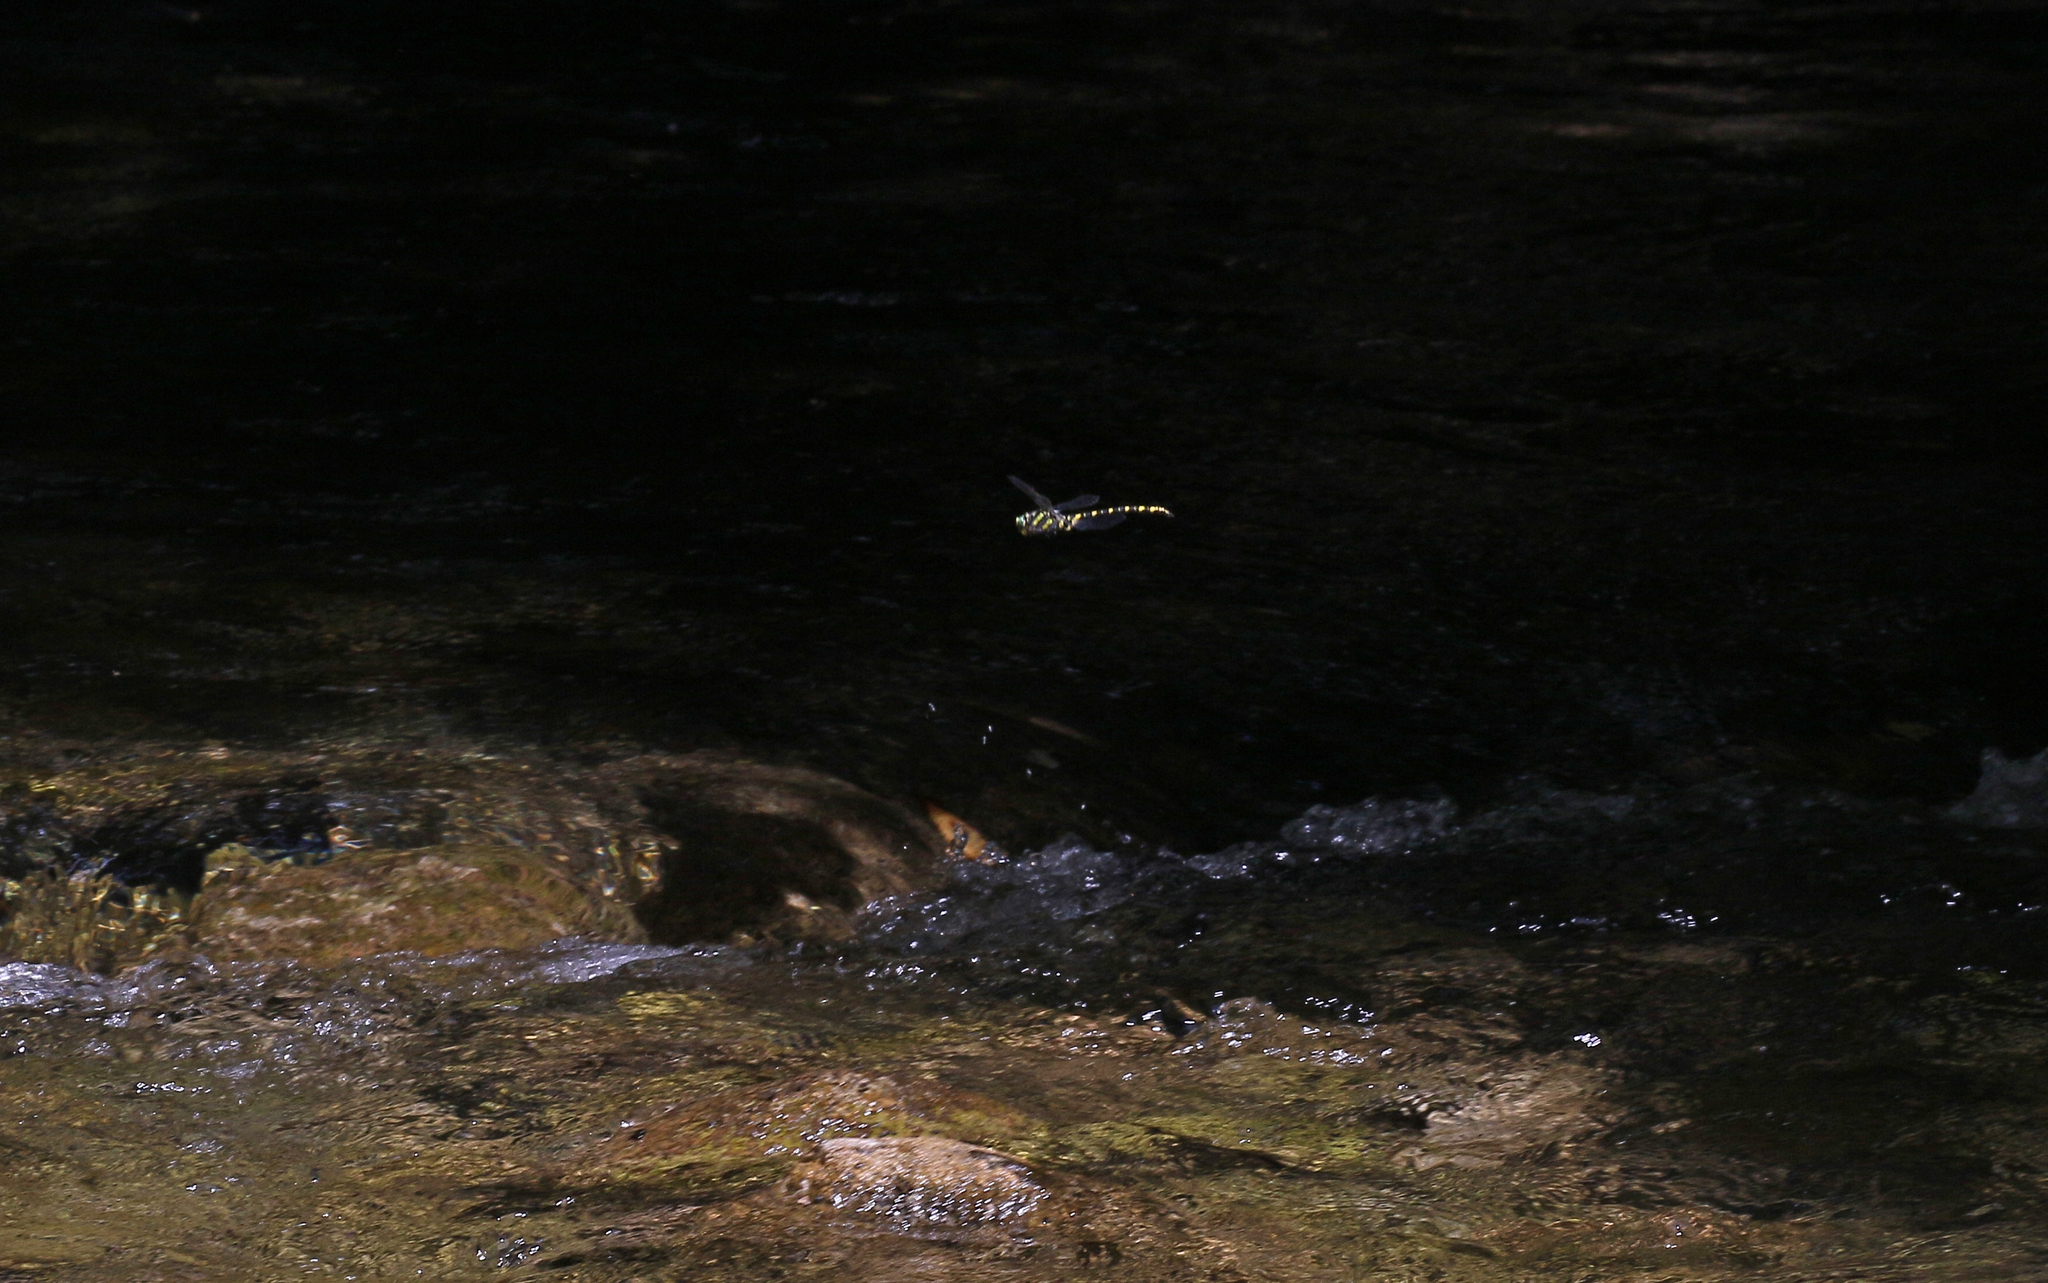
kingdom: Animalia
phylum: Arthropoda
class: Insecta
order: Odonata
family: Cordulegastridae
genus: Cordulegaster
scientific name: Cordulegaster boltonii
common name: Golden-ringed dragonfly
